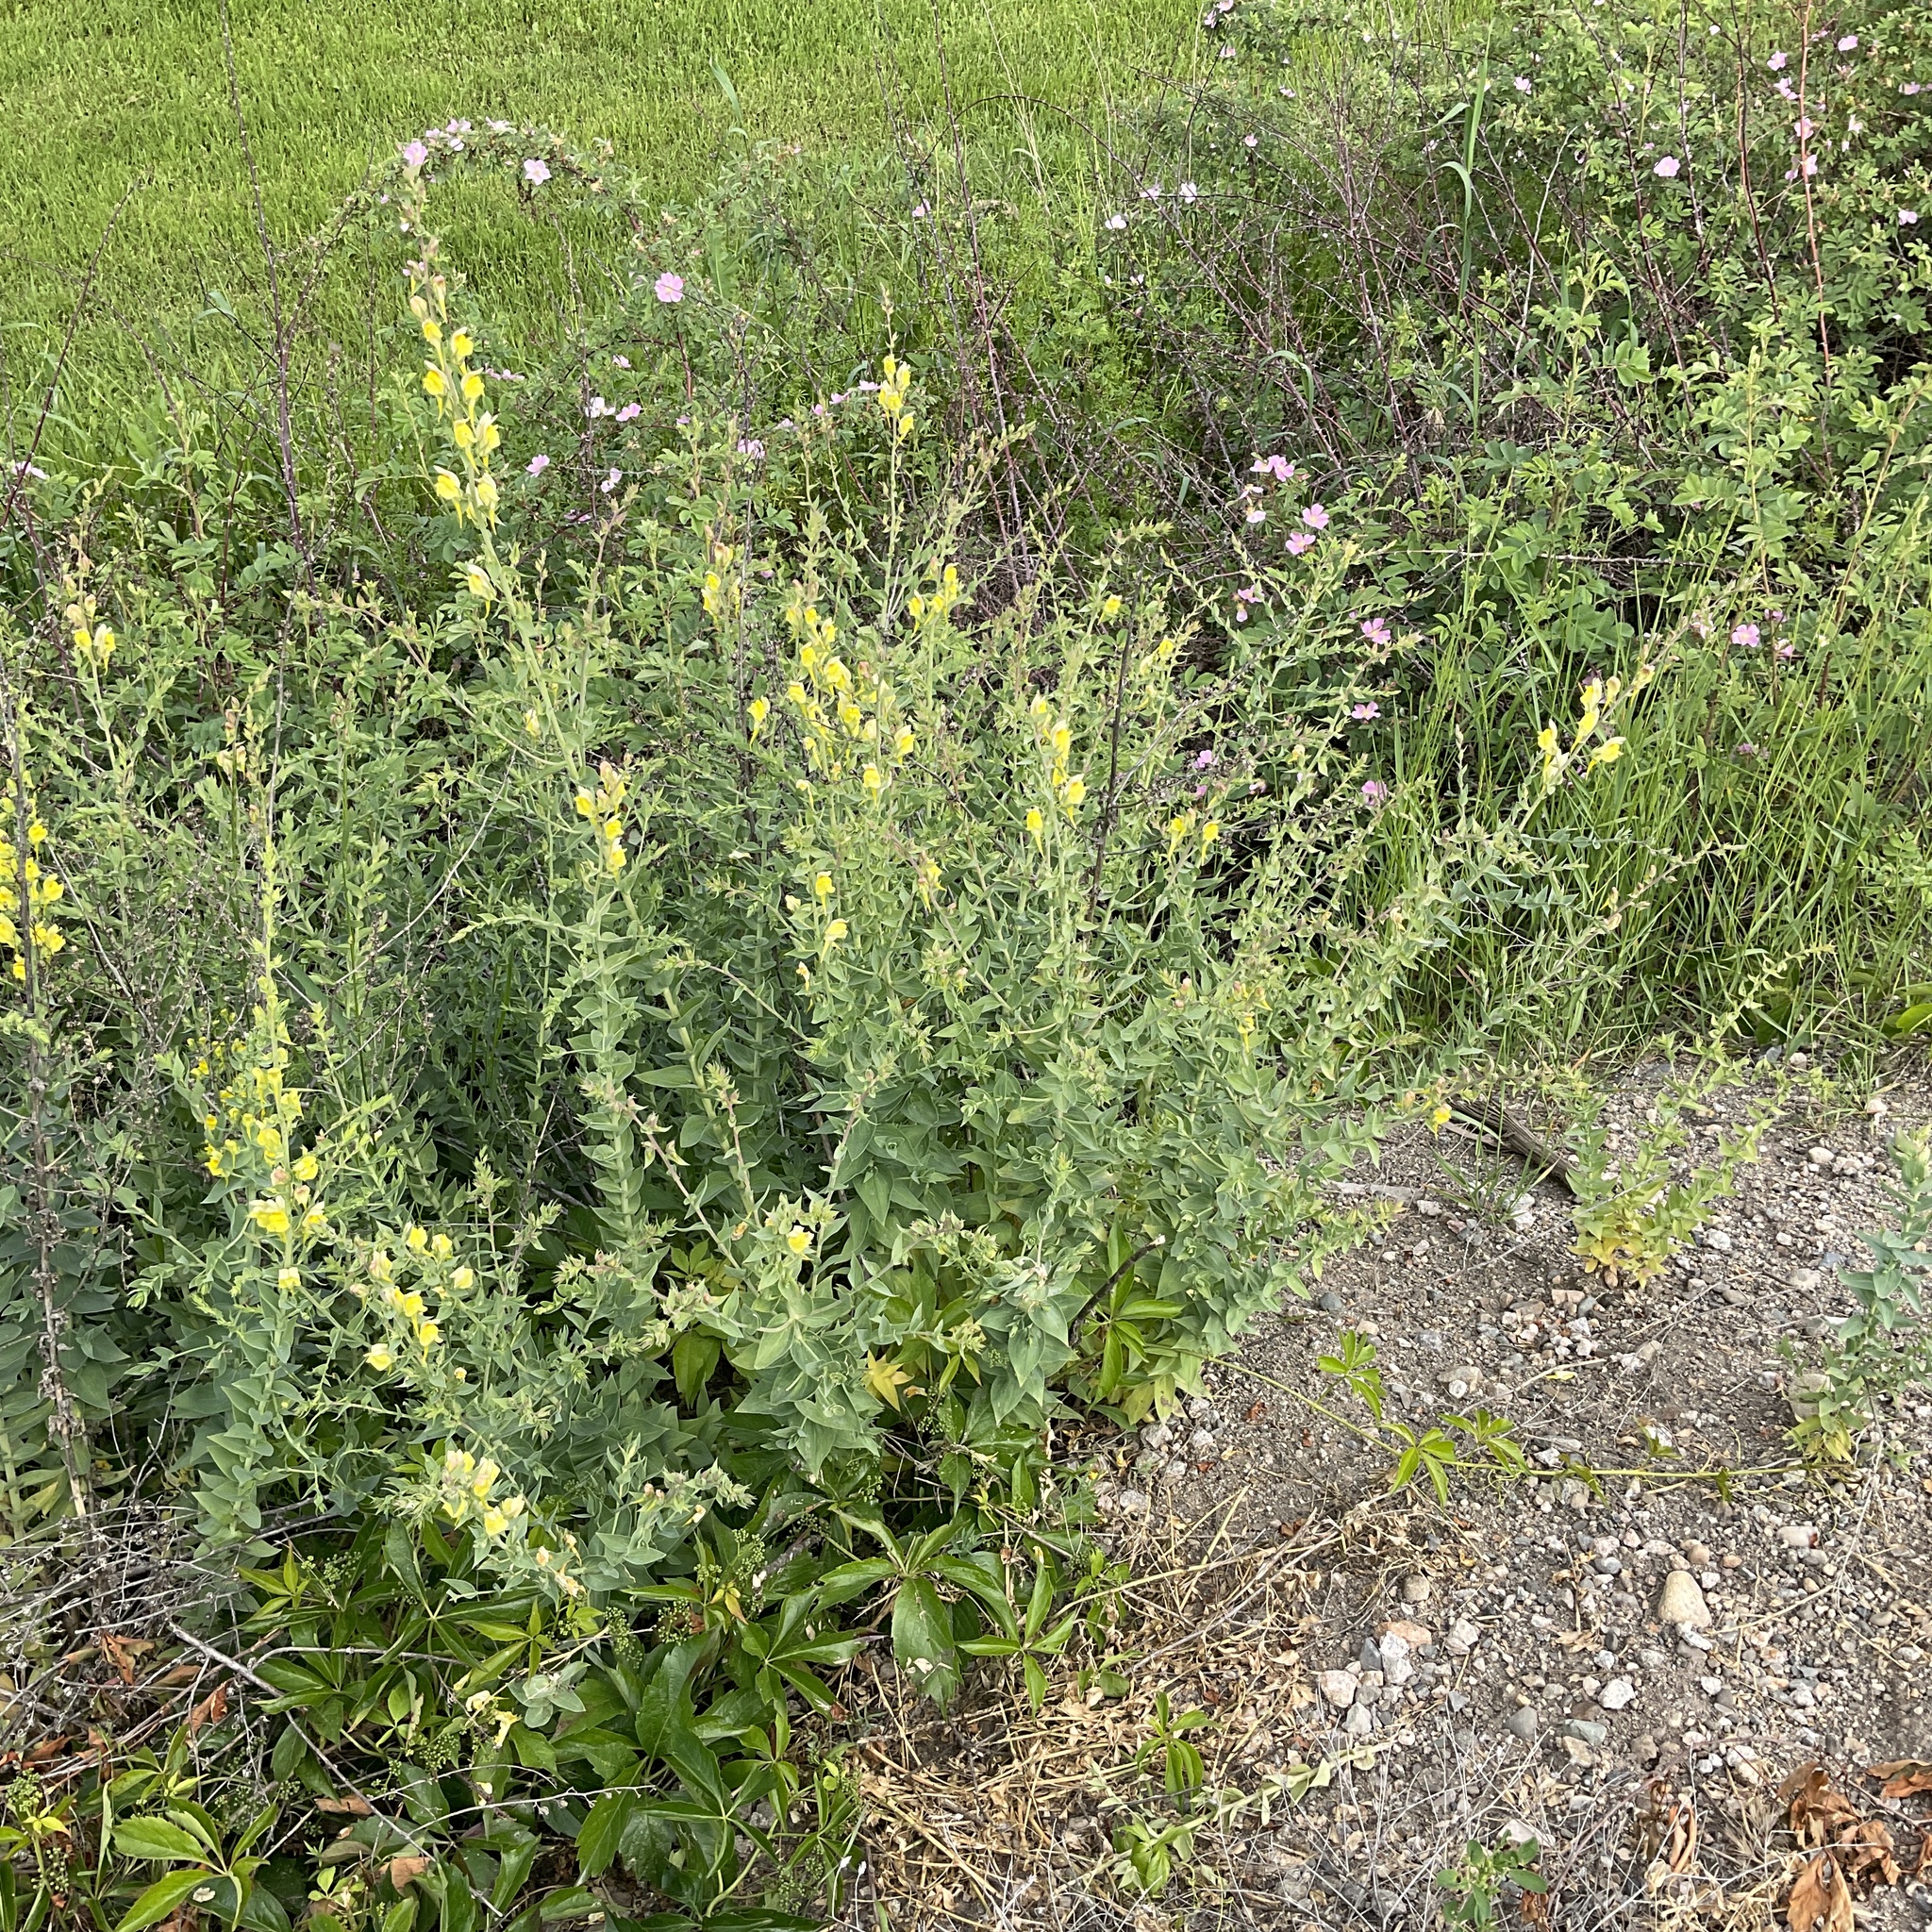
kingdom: Plantae
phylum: Tracheophyta
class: Magnoliopsida
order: Lamiales
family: Plantaginaceae
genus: Linaria
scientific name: Linaria dalmatica
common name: Dalmatian toadflax
